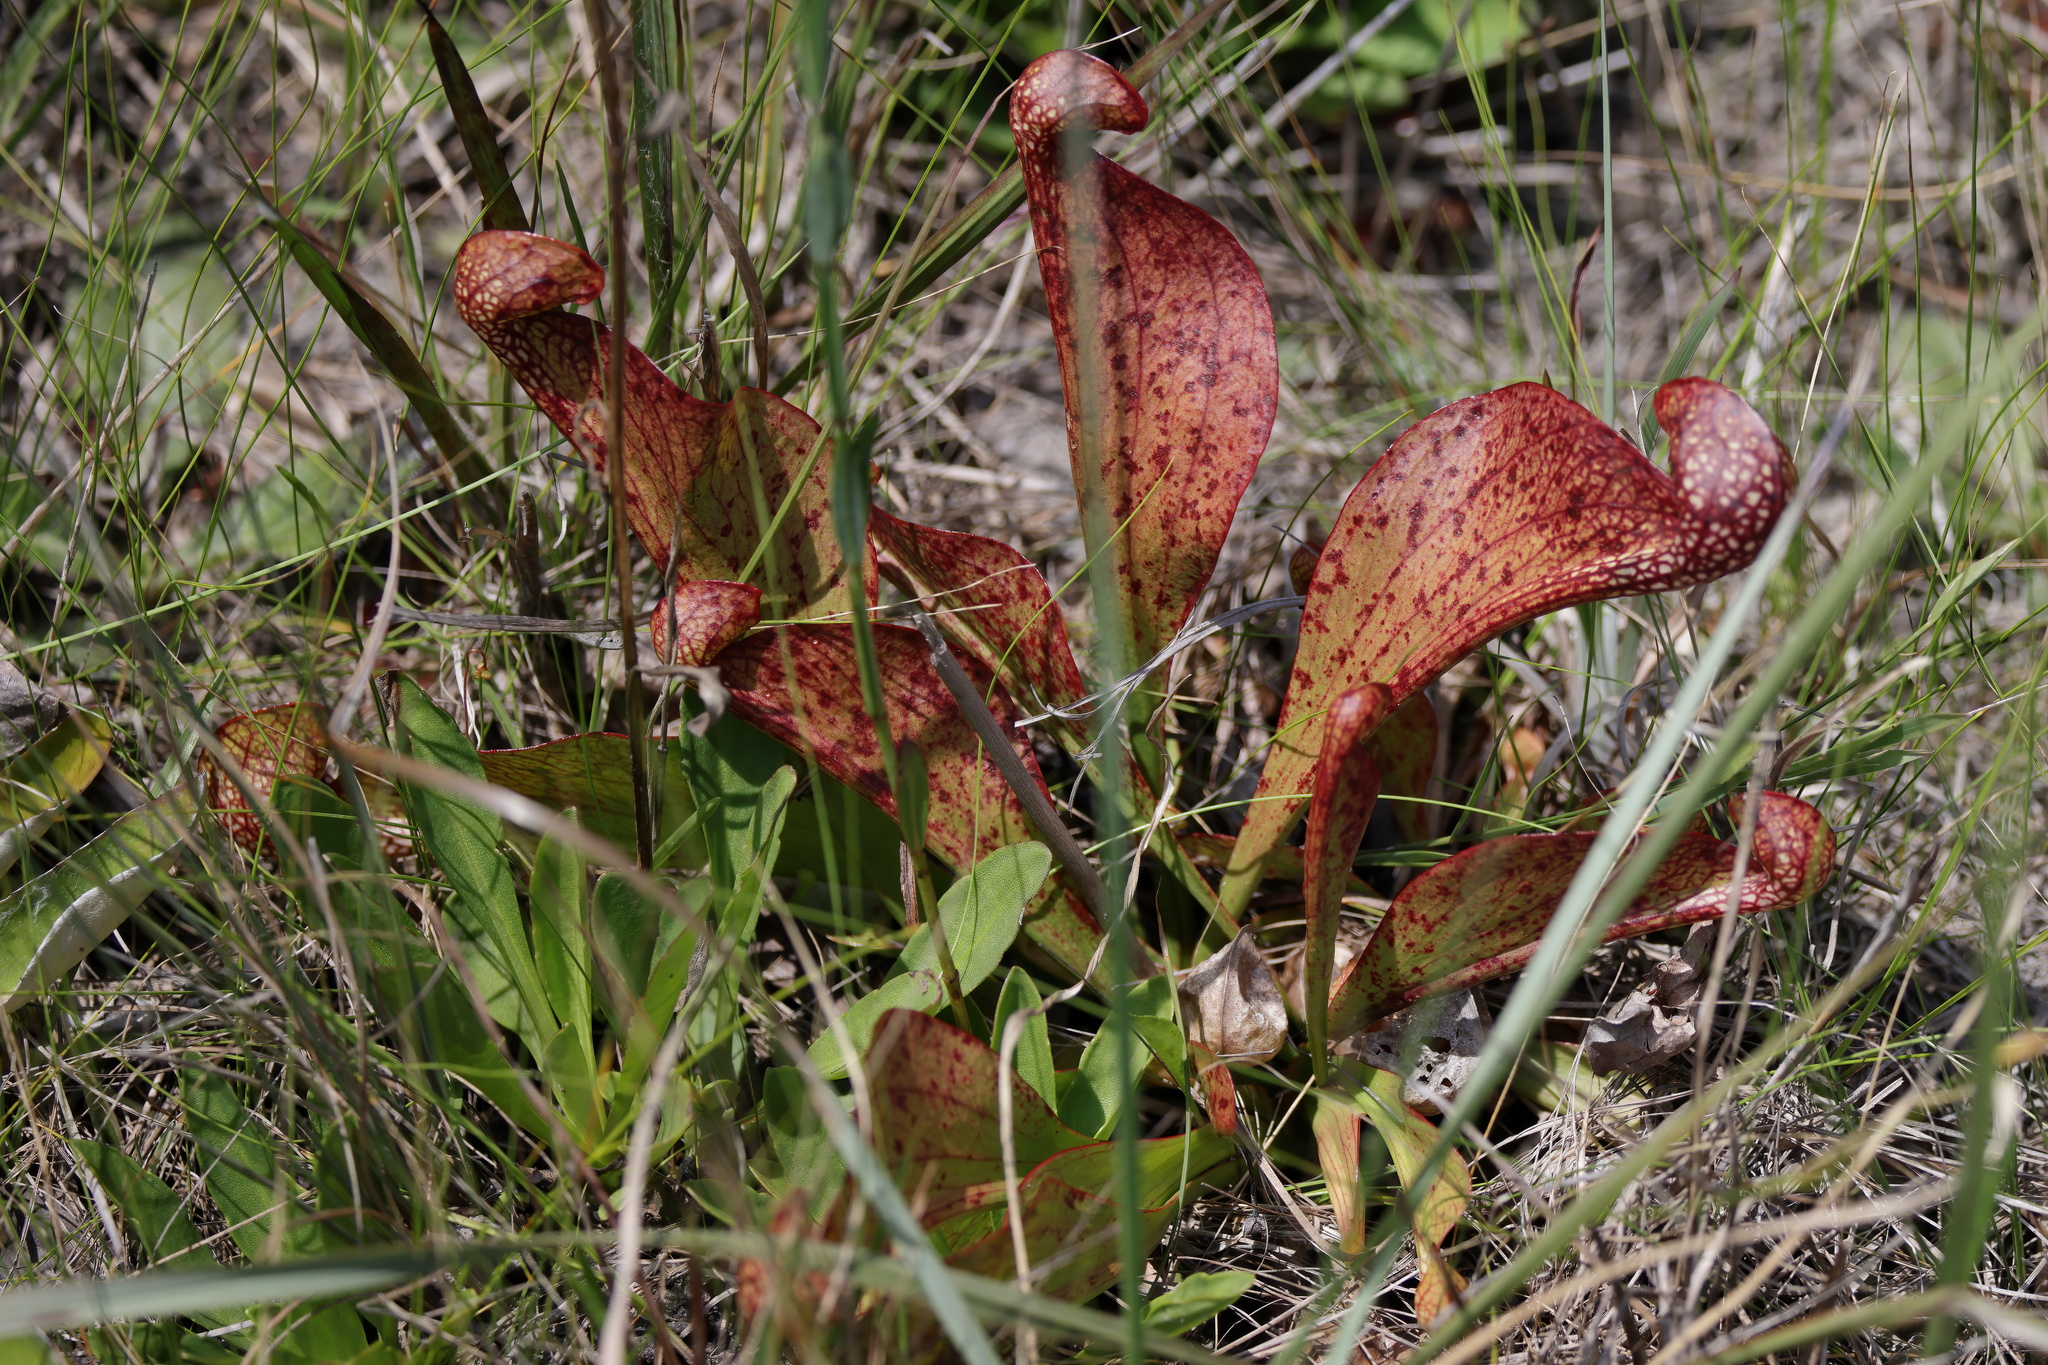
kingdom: Plantae
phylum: Tracheophyta
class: Magnoliopsida
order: Ericales
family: Sarraceniaceae
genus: Sarracenia
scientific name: Sarracenia psittacina
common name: Parrot pitcherplant
